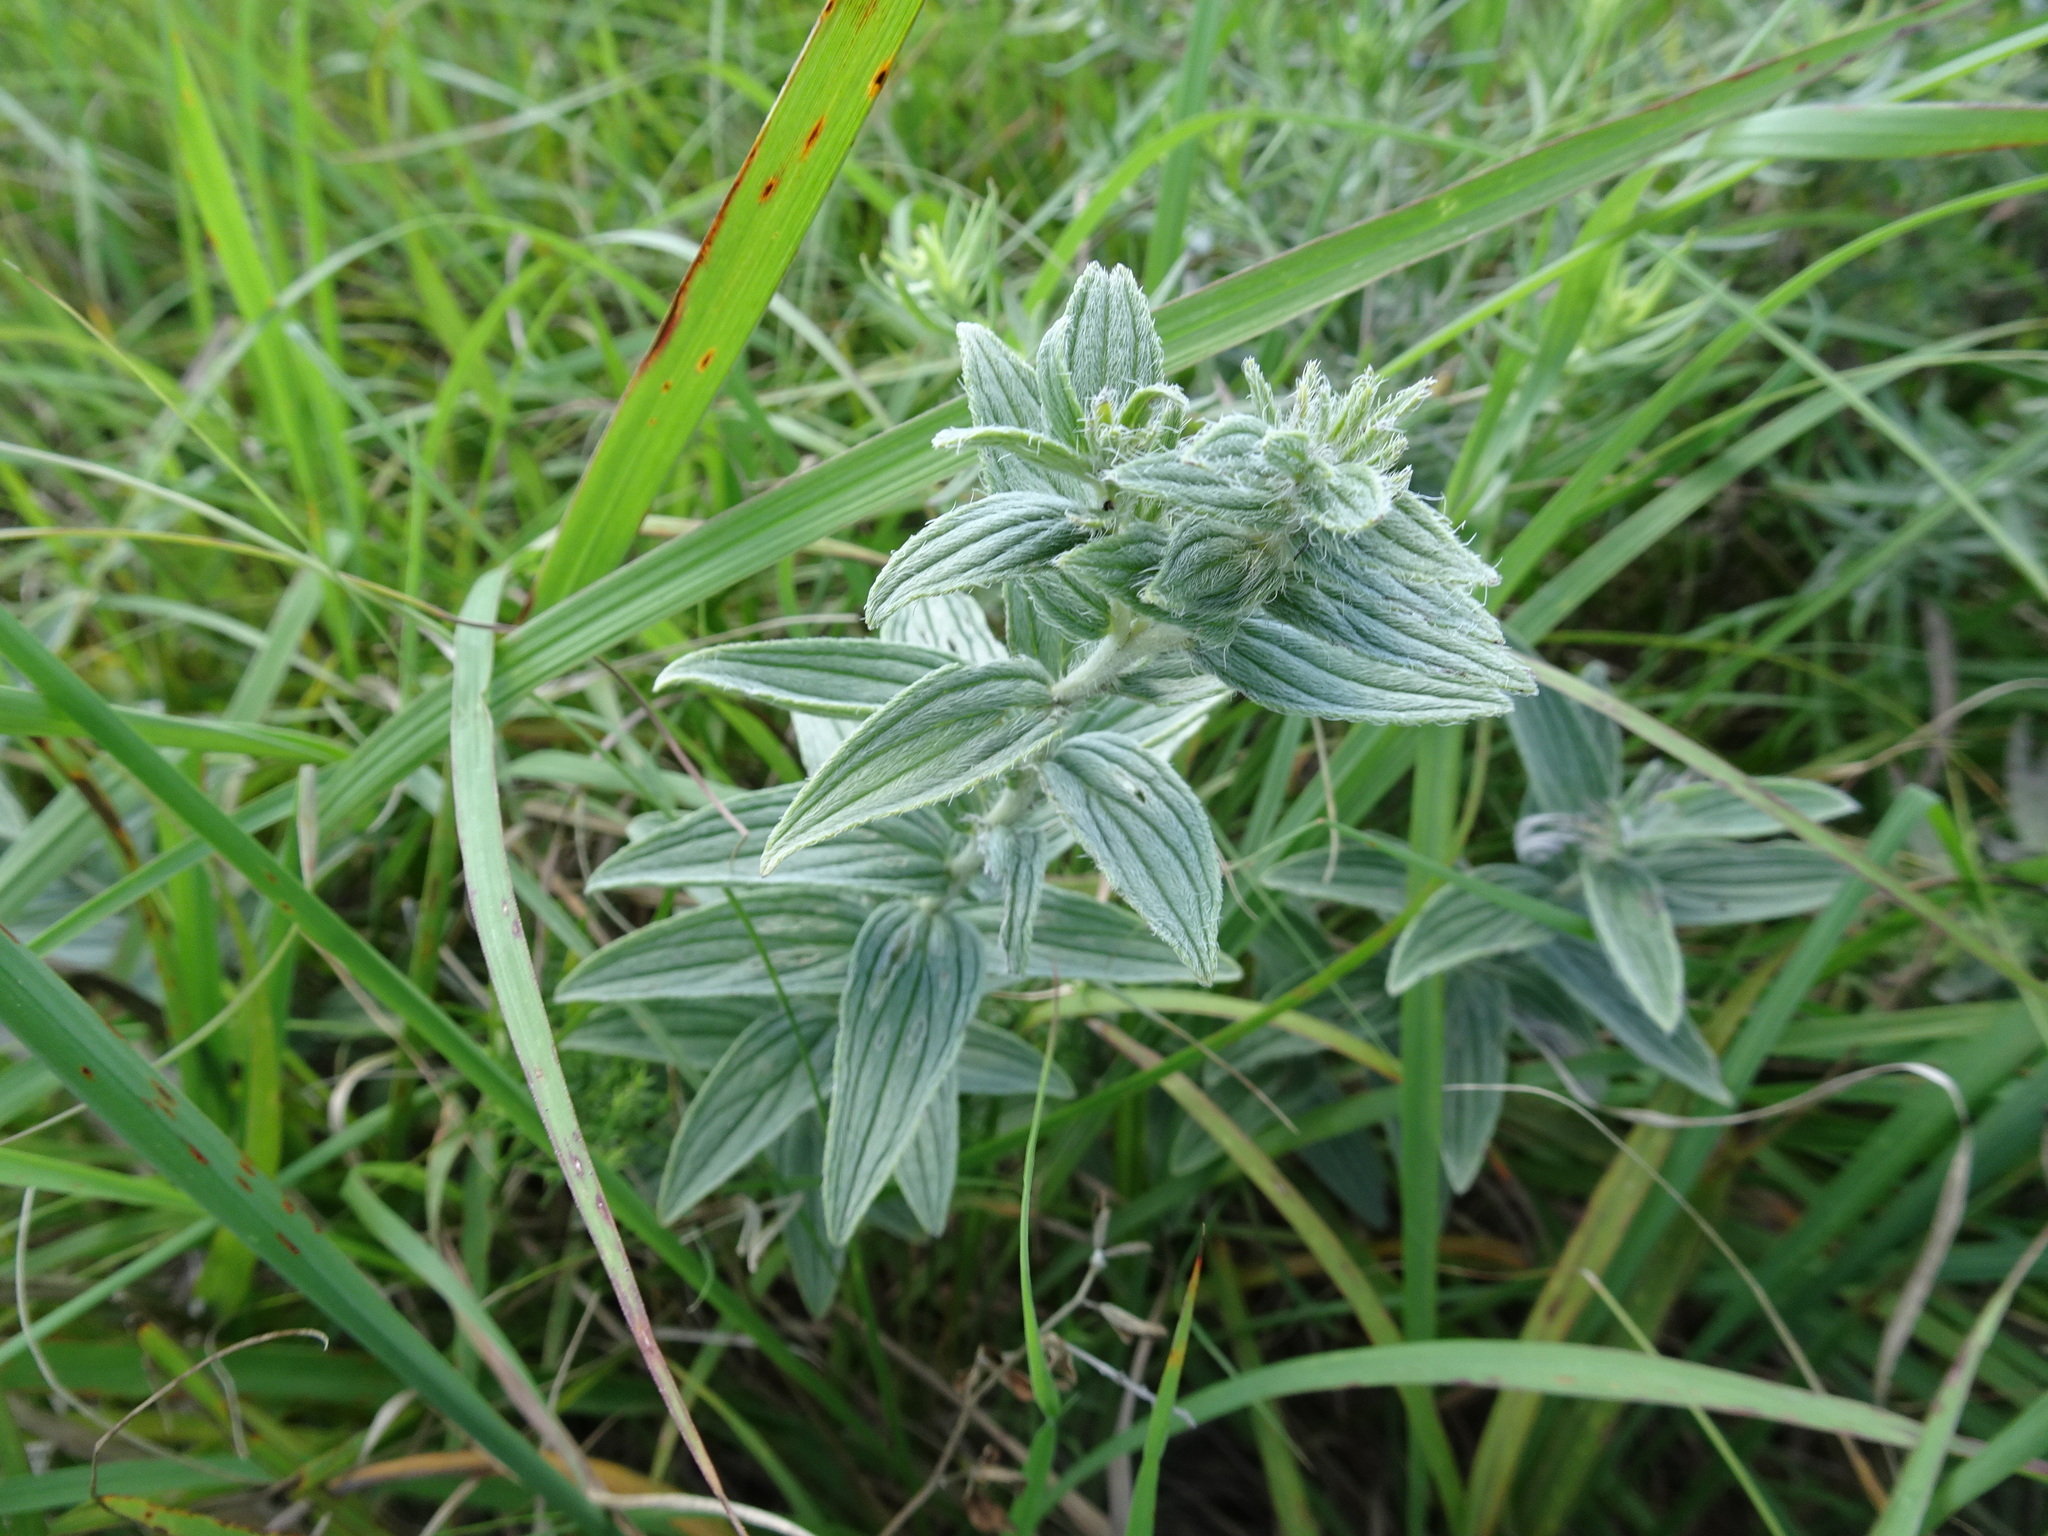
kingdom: Plantae
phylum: Tracheophyta
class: Magnoliopsida
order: Boraginales
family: Boraginaceae
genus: Lithospermum
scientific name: Lithospermum occidentale
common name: Western false gromwell
